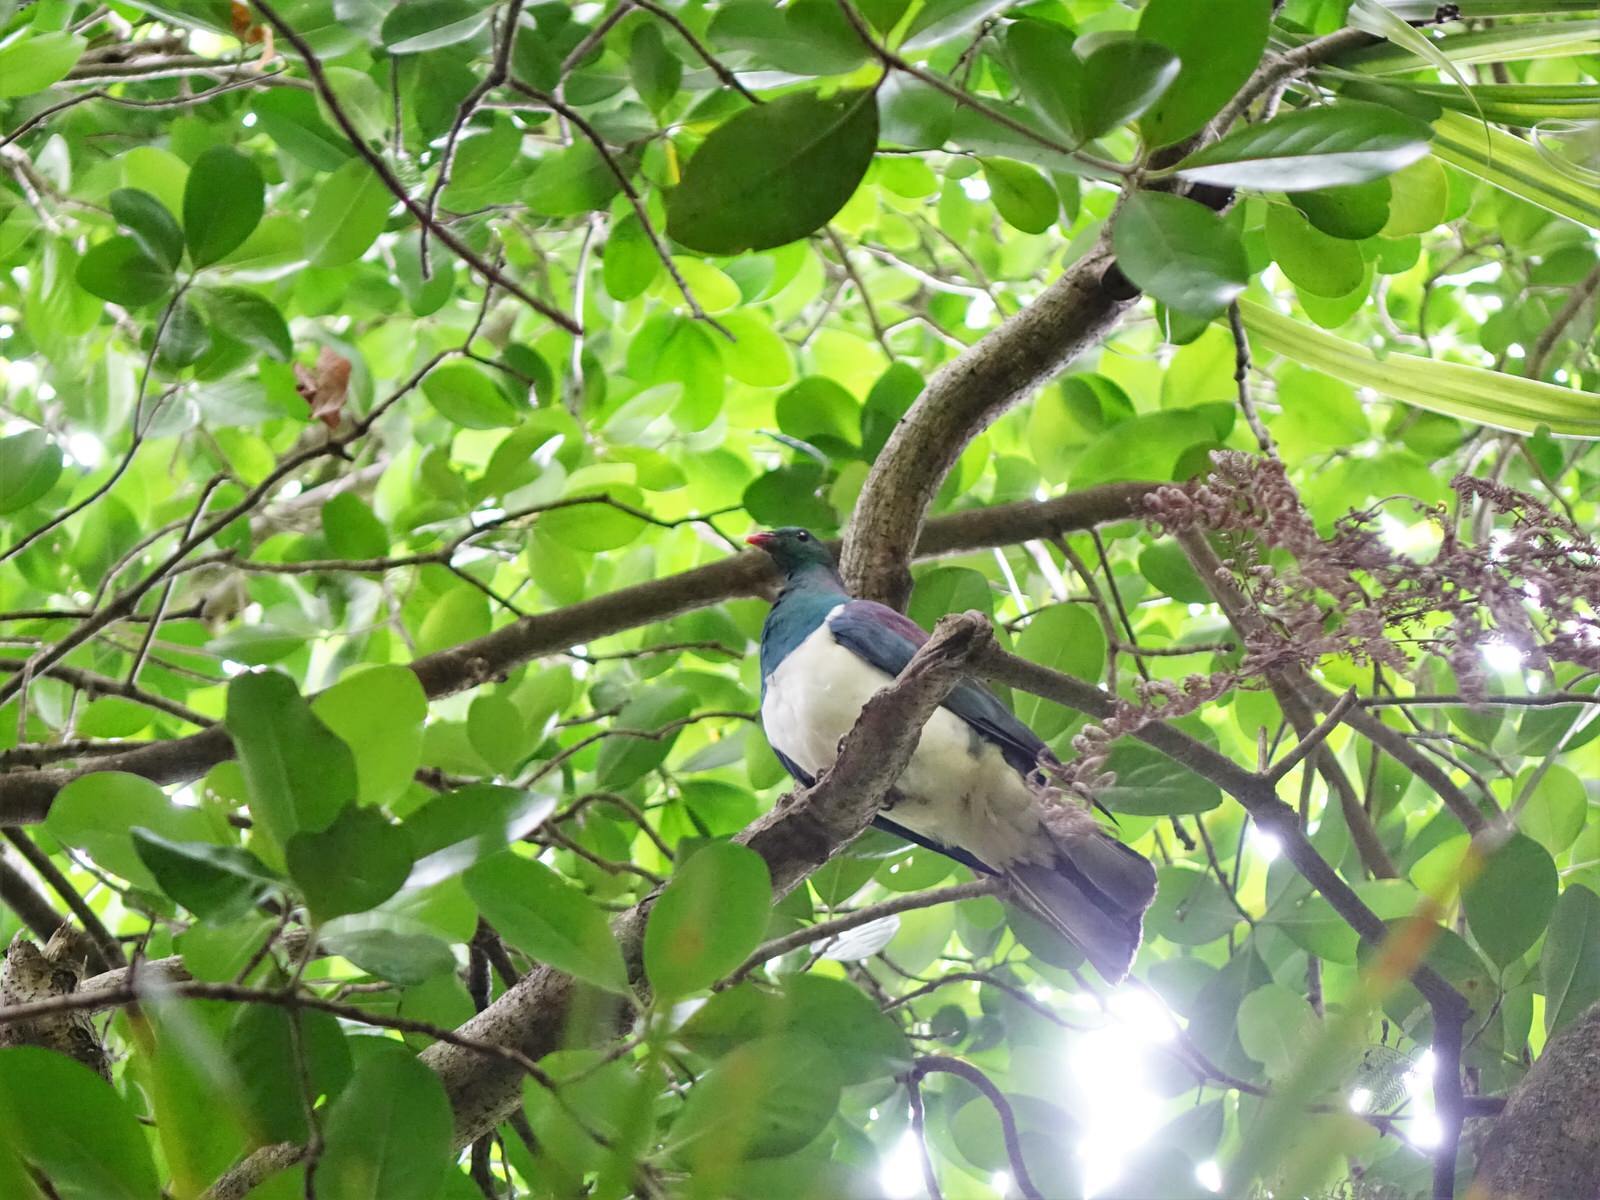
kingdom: Animalia
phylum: Chordata
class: Aves
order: Columbiformes
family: Columbidae
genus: Hemiphaga
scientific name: Hemiphaga novaeseelandiae
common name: New zealand pigeon
